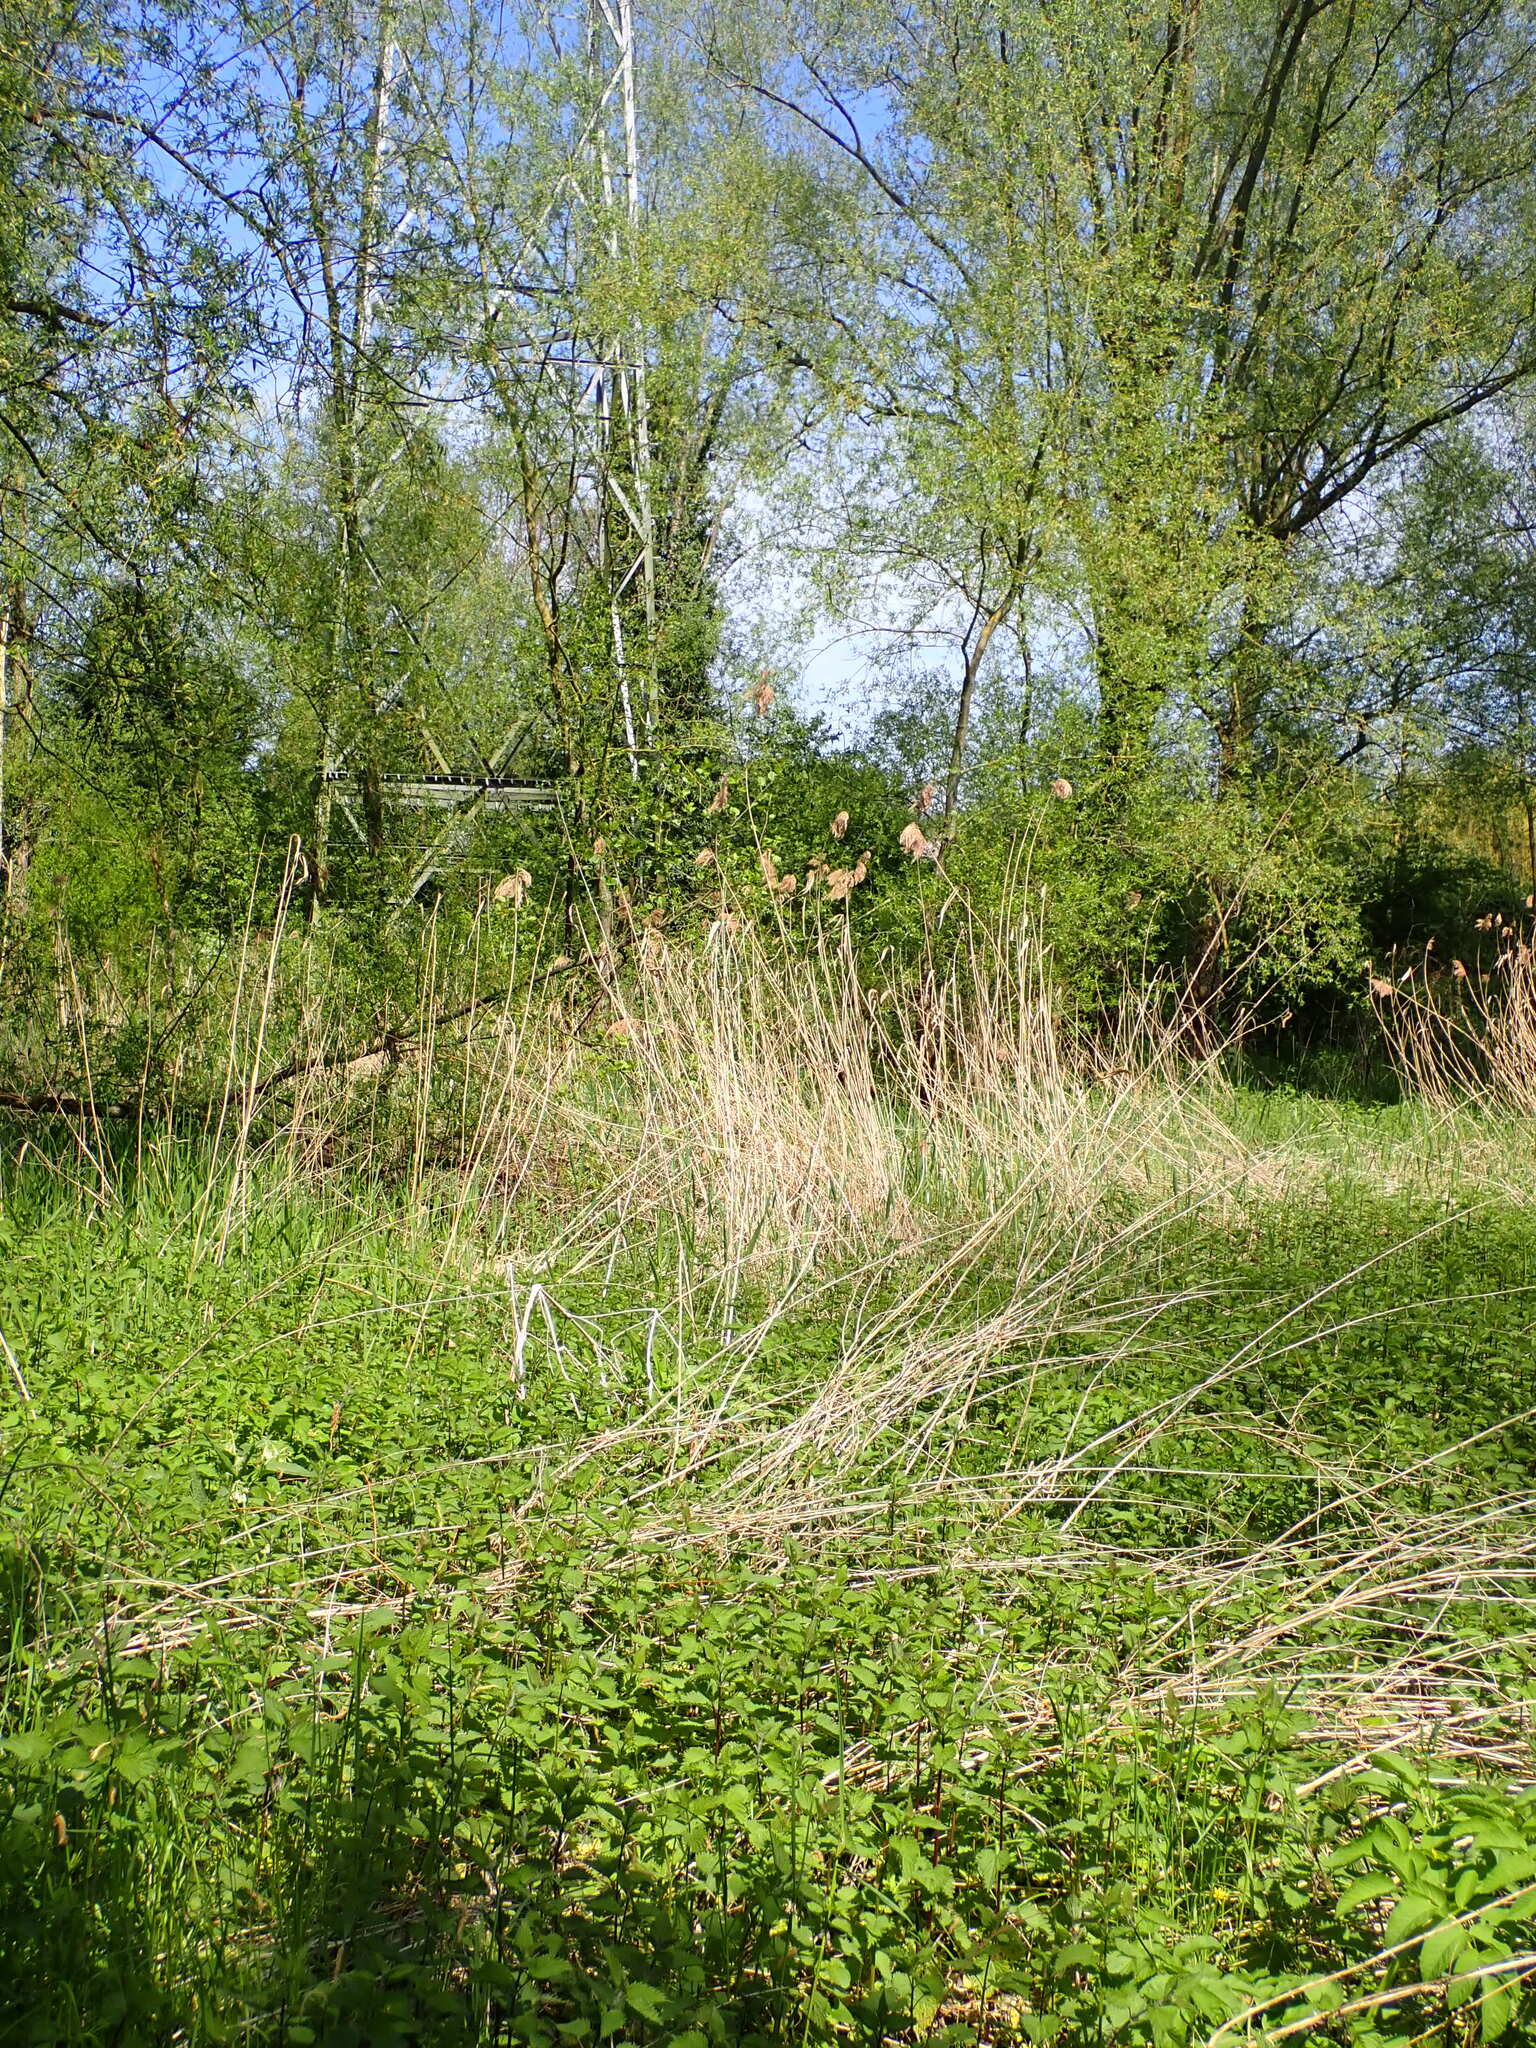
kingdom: Plantae
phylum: Tracheophyta
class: Liliopsida
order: Poales
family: Poaceae
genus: Phragmites
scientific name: Phragmites australis
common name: Common reed
